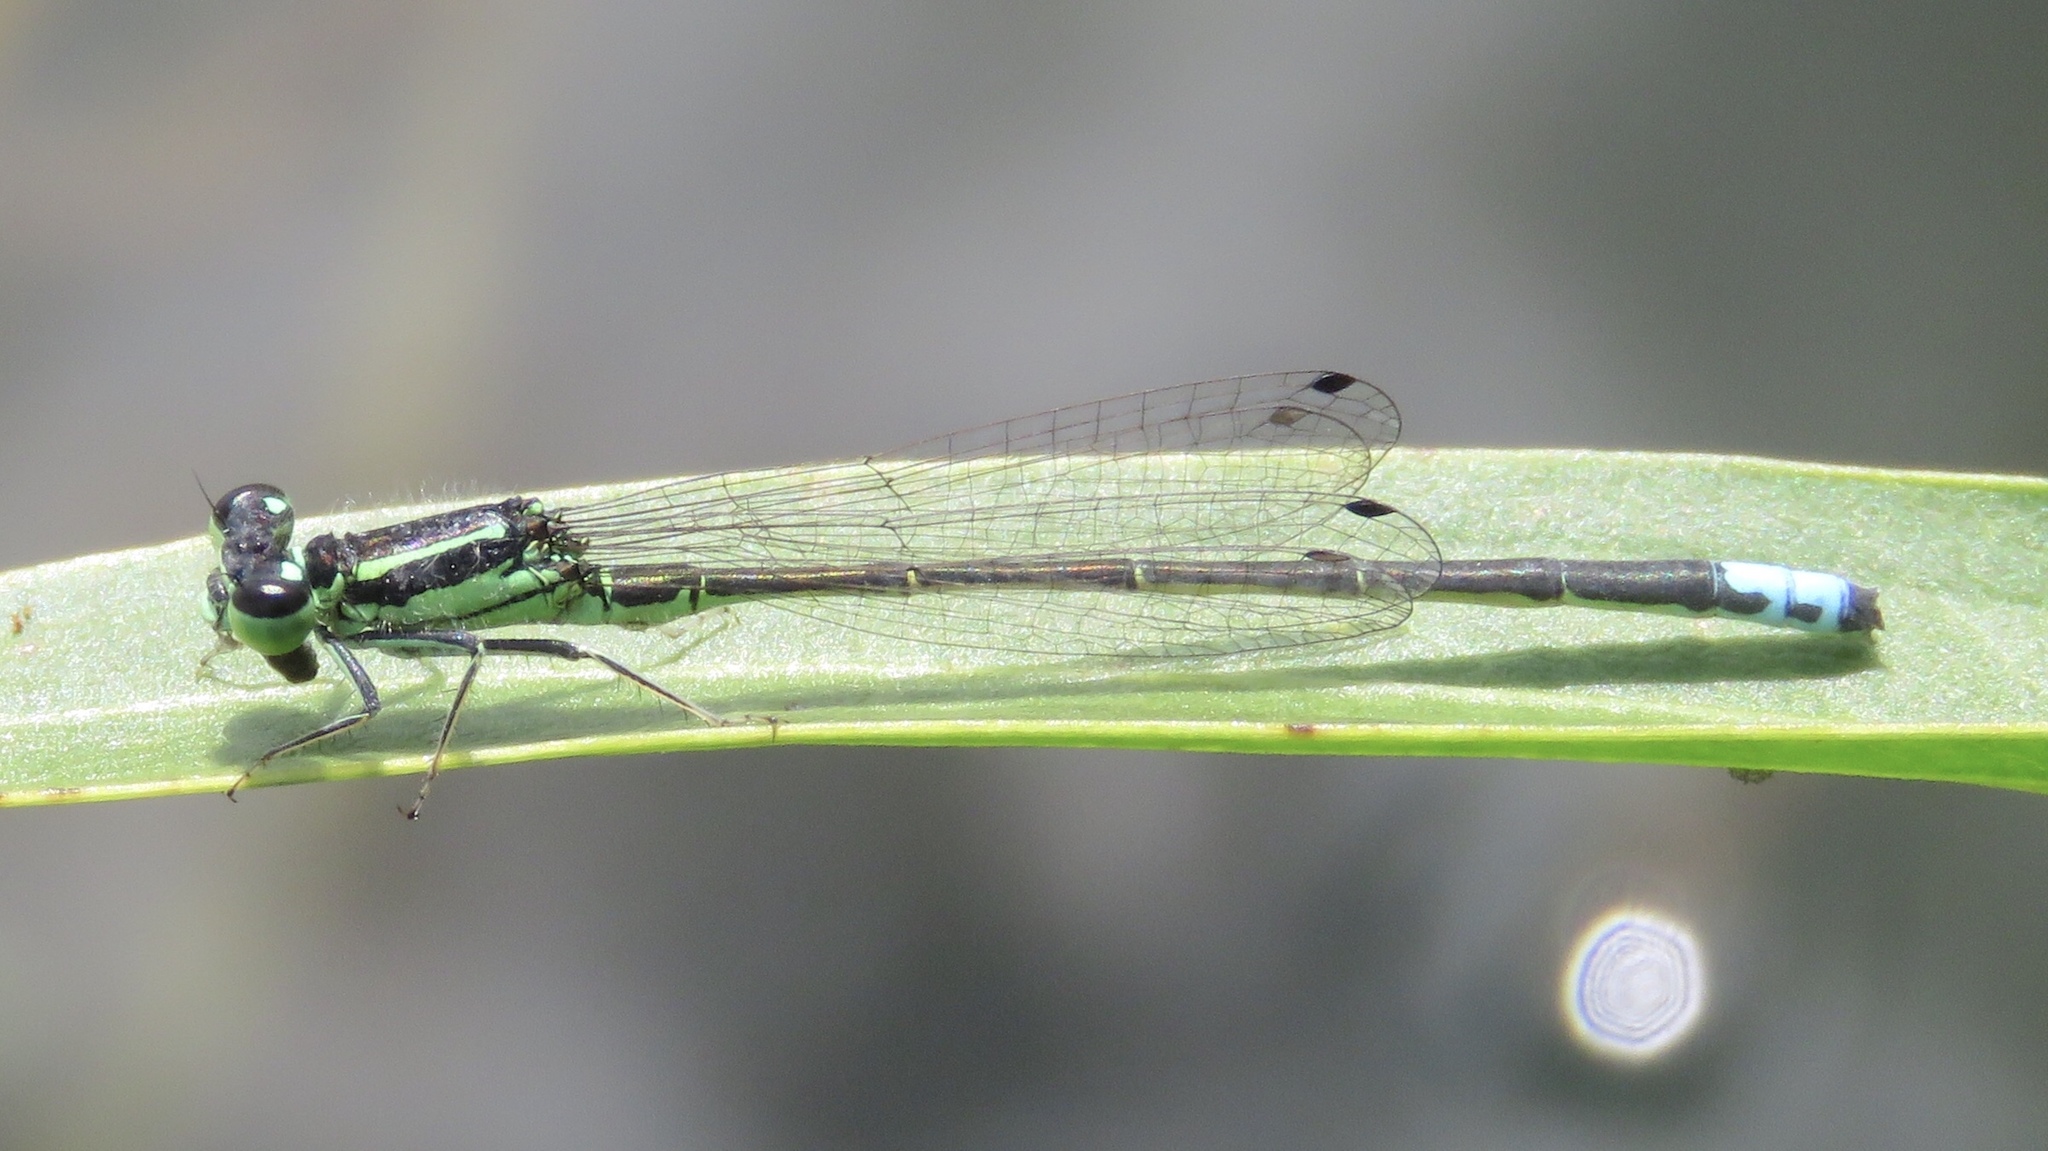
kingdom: Animalia
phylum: Arthropoda
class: Insecta
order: Odonata
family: Coenagrionidae
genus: Ischnura
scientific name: Ischnura verticalis
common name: Eastern forktail
